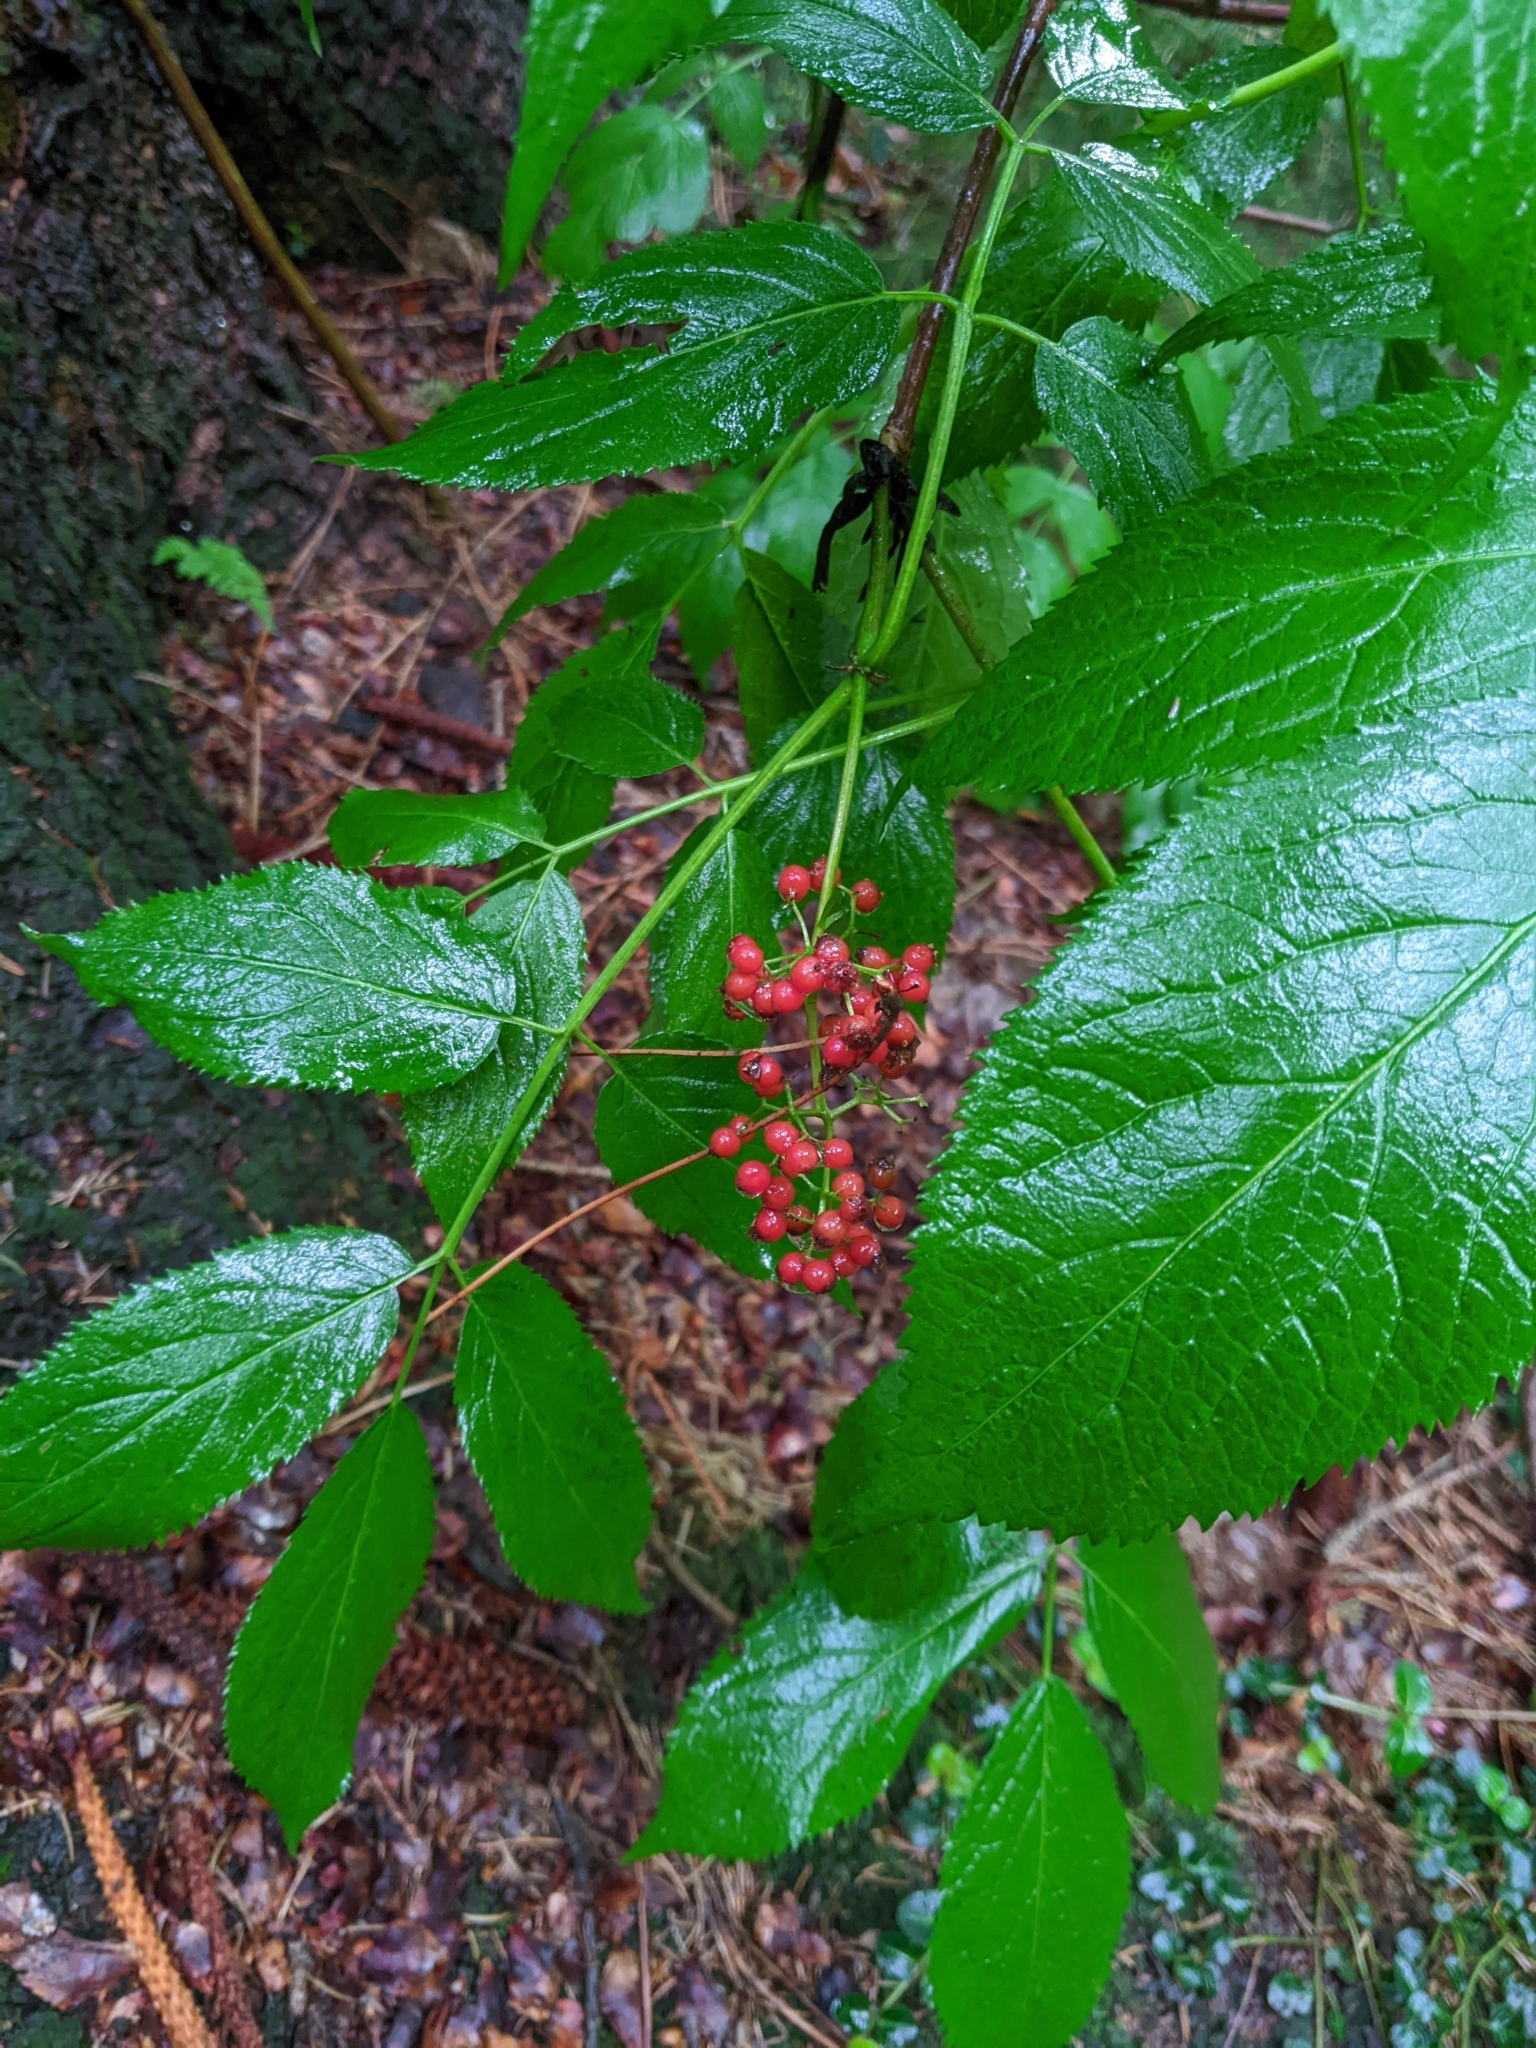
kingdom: Plantae
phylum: Tracheophyta
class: Magnoliopsida
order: Dipsacales
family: Viburnaceae
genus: Sambucus
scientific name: Sambucus racemosa
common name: Red-berried elder
